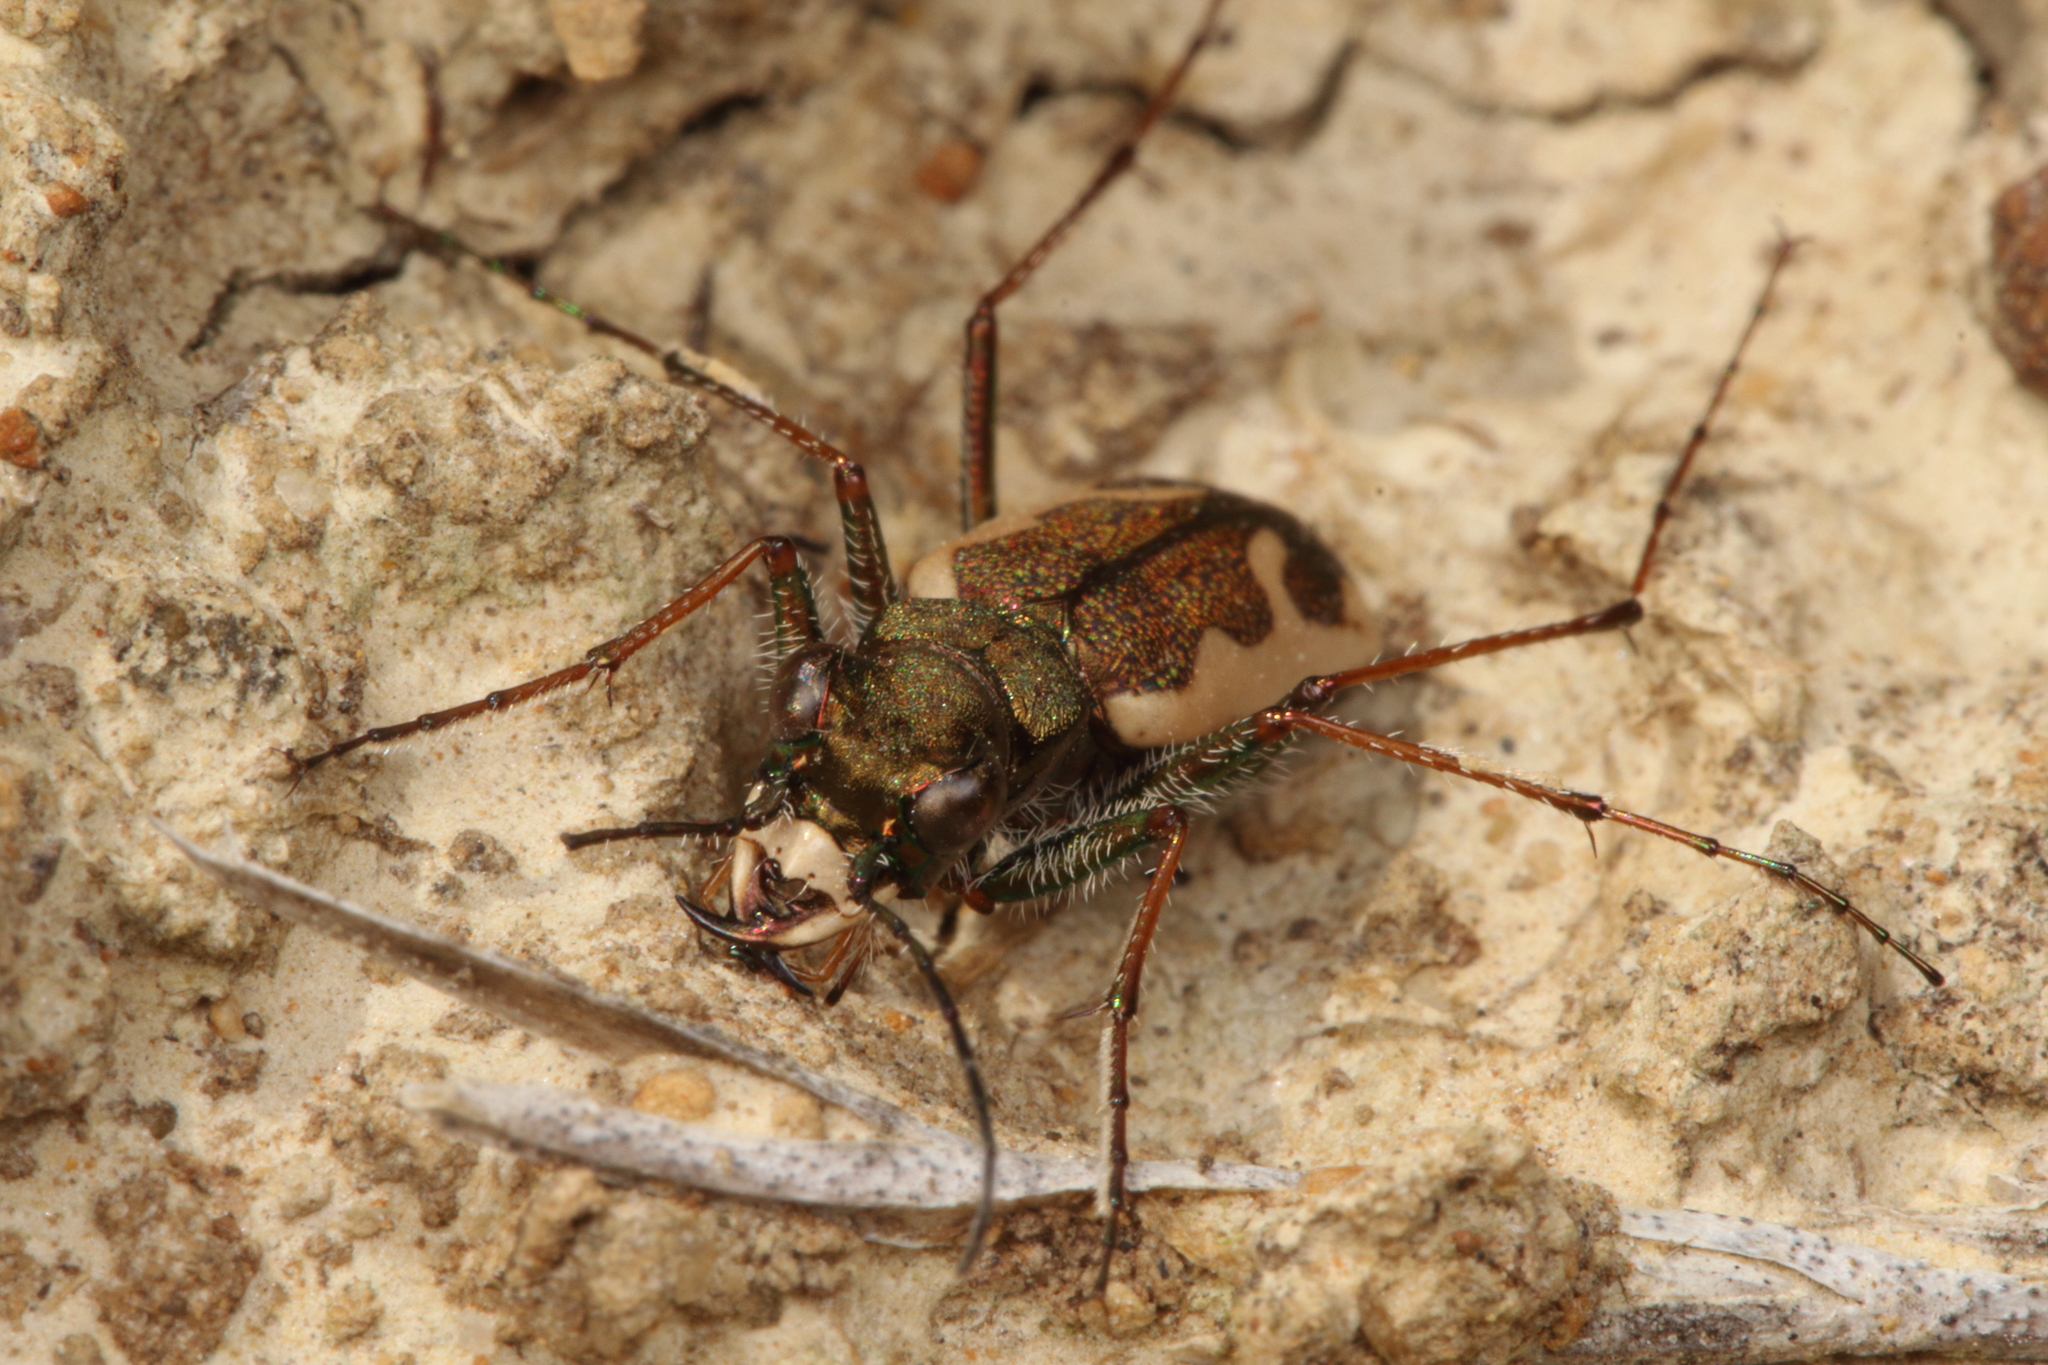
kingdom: Animalia
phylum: Arthropoda
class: Insecta
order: Coleoptera
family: Carabidae
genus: Neocicindela
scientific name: Neocicindela latecincta
